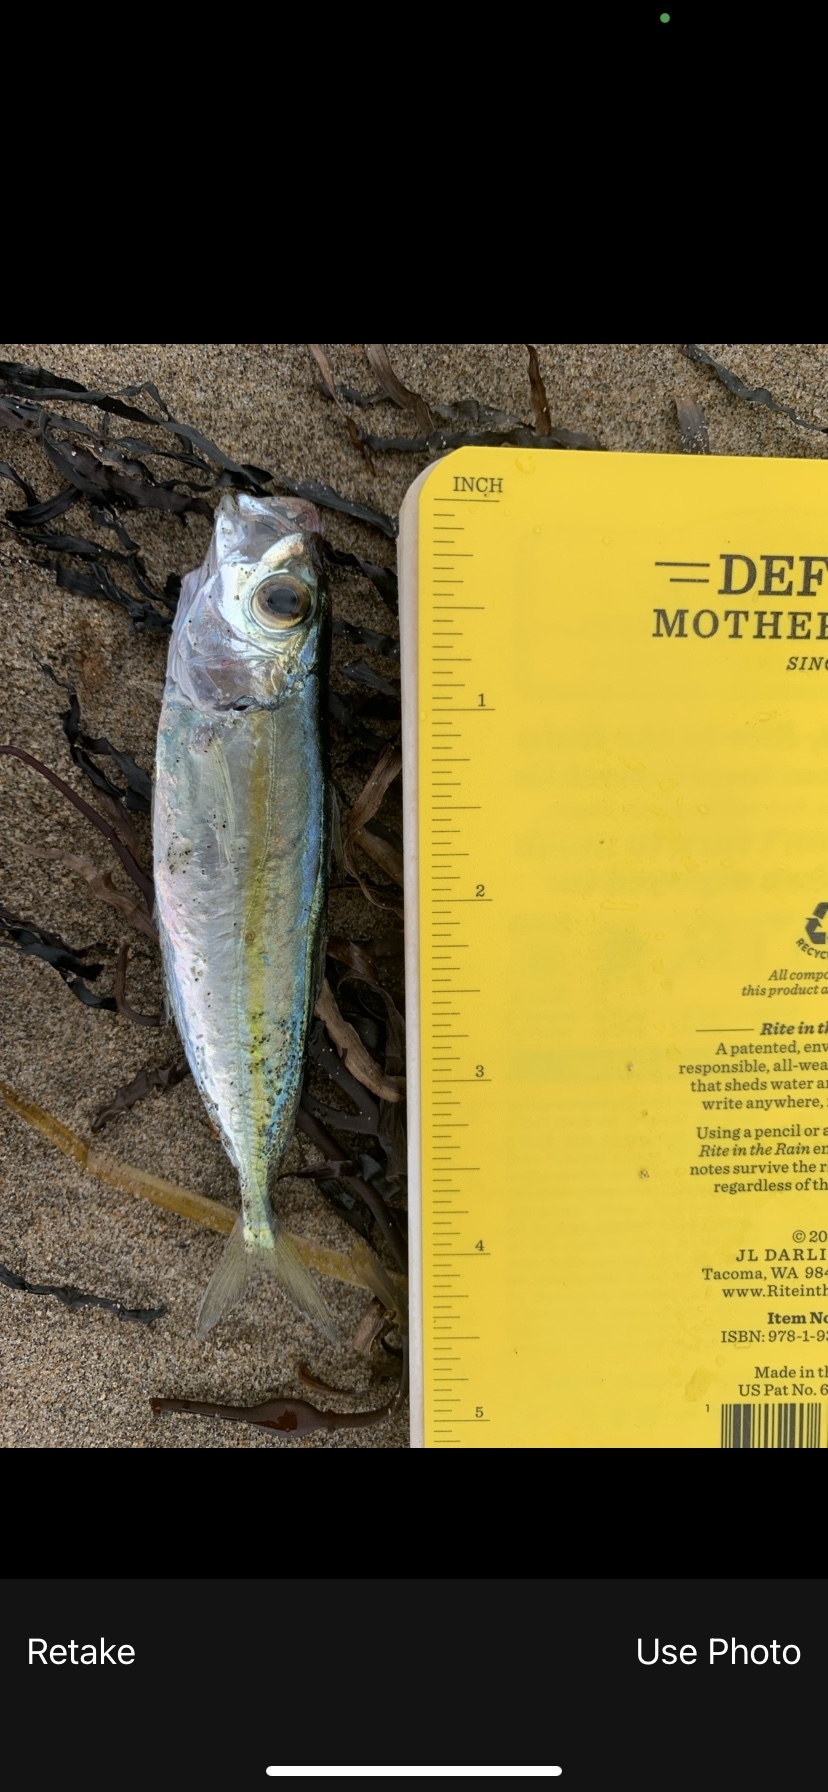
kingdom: Animalia
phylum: Chordata
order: Perciformes
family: Carangidae
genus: Selar
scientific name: Selar crumenophthalmus
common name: Bigeye scad
